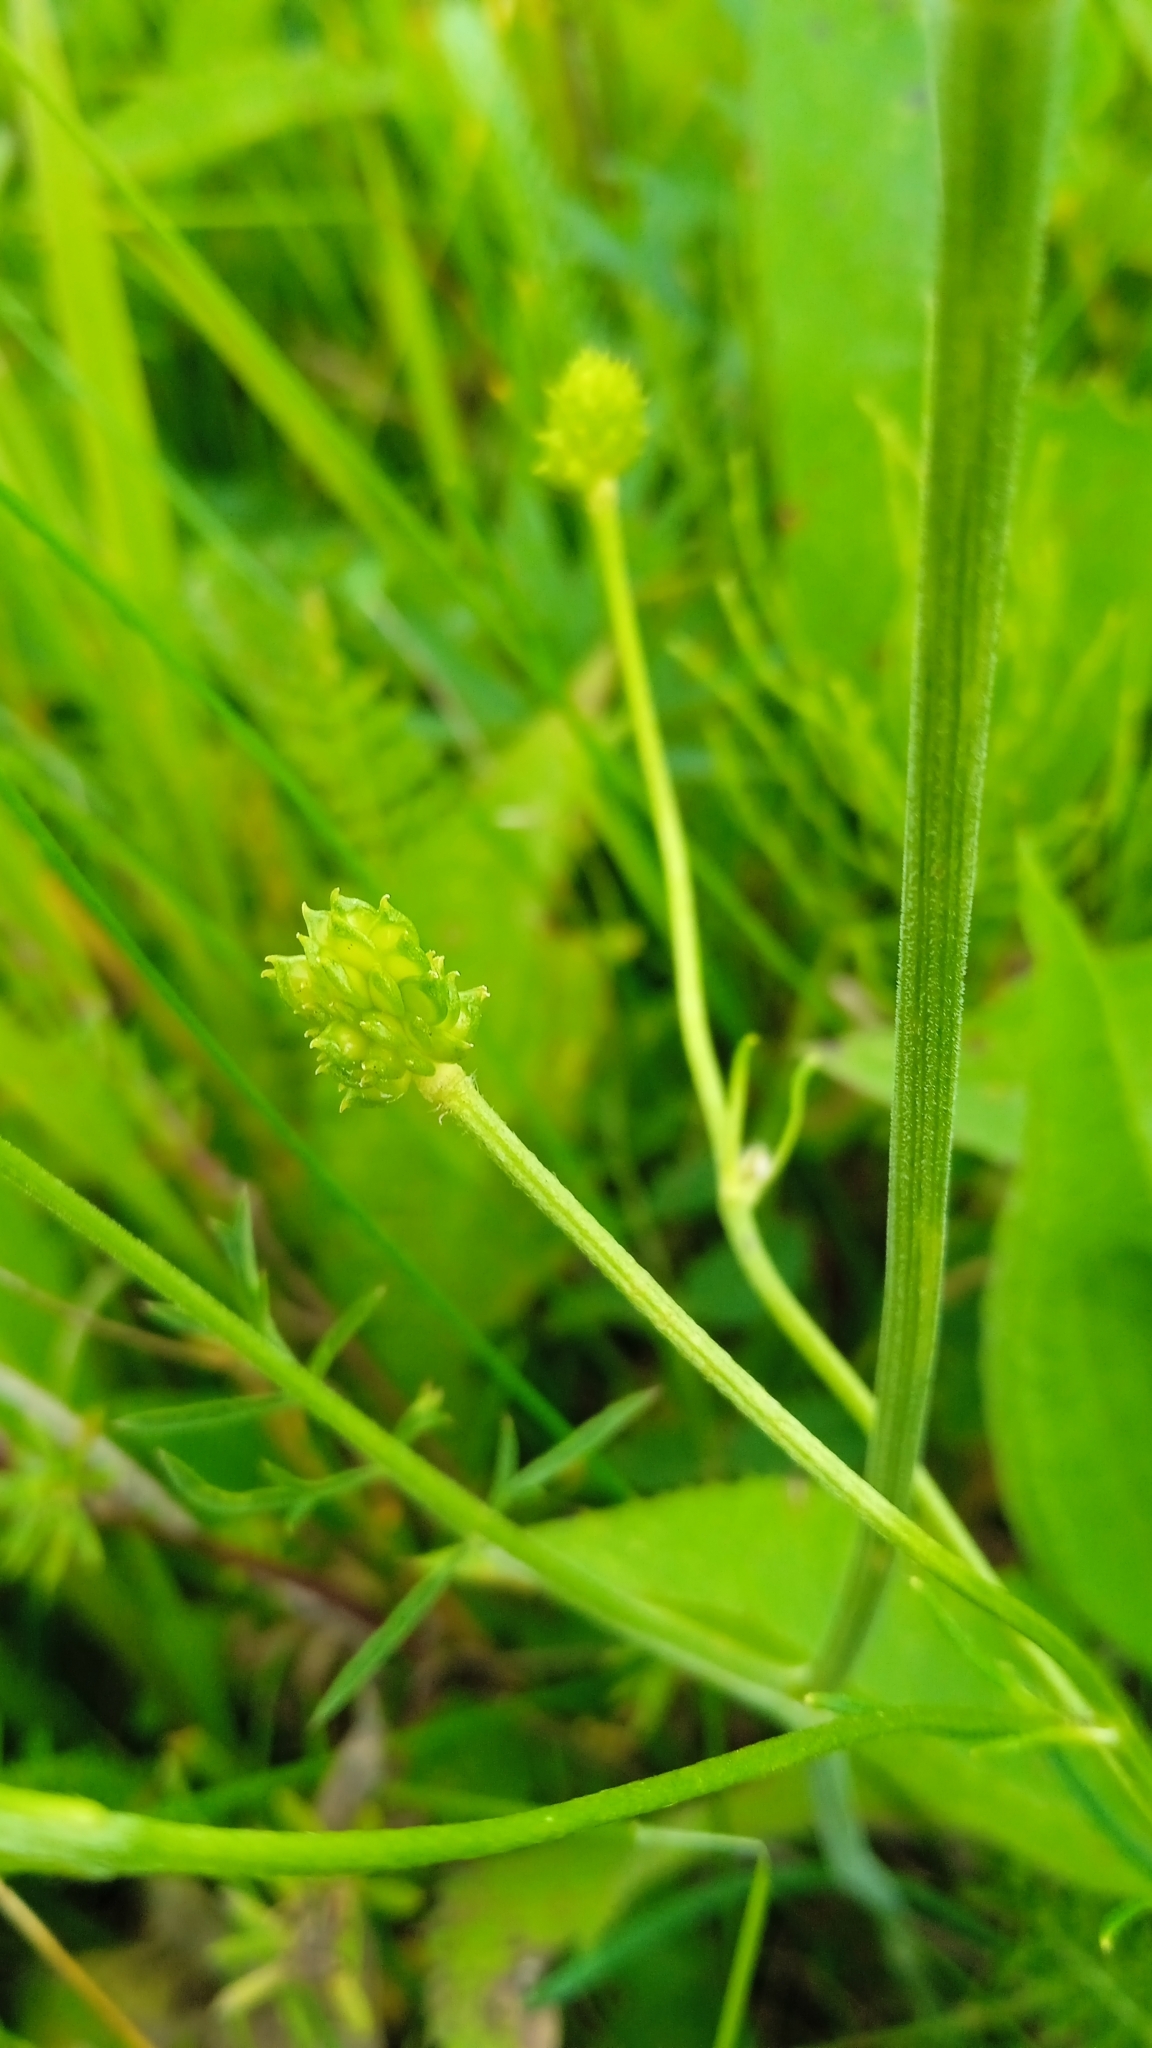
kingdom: Plantae
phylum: Tracheophyta
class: Magnoliopsida
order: Ranunculales
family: Ranunculaceae
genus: Ranunculus
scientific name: Ranunculus polyanthemos
